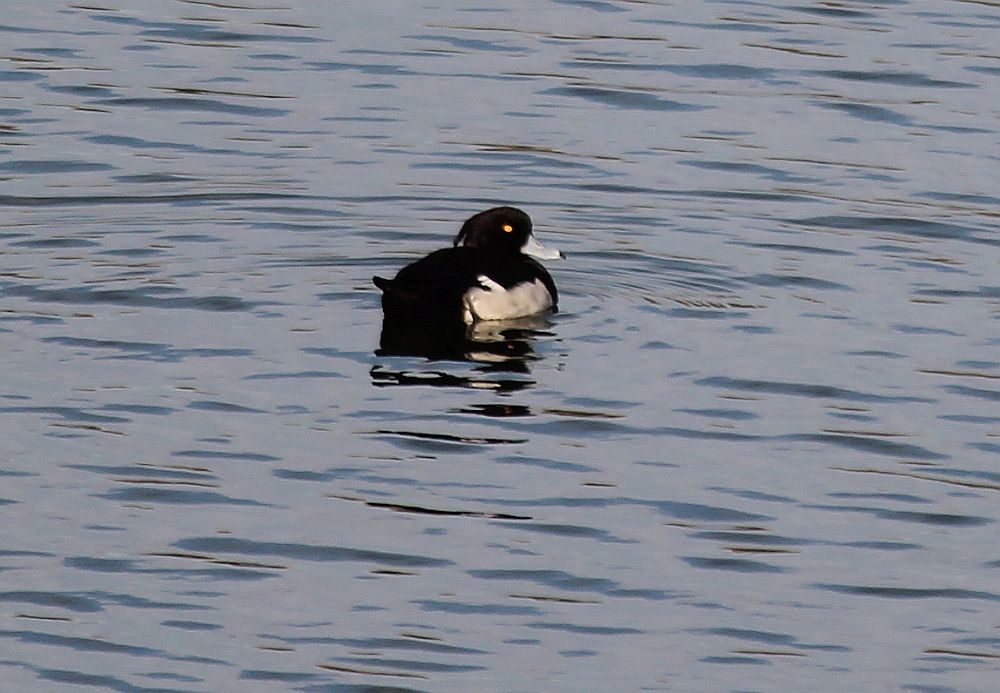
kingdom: Animalia
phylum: Chordata
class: Aves
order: Anseriformes
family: Anatidae
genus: Aythya
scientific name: Aythya fuligula
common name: Tufted duck
